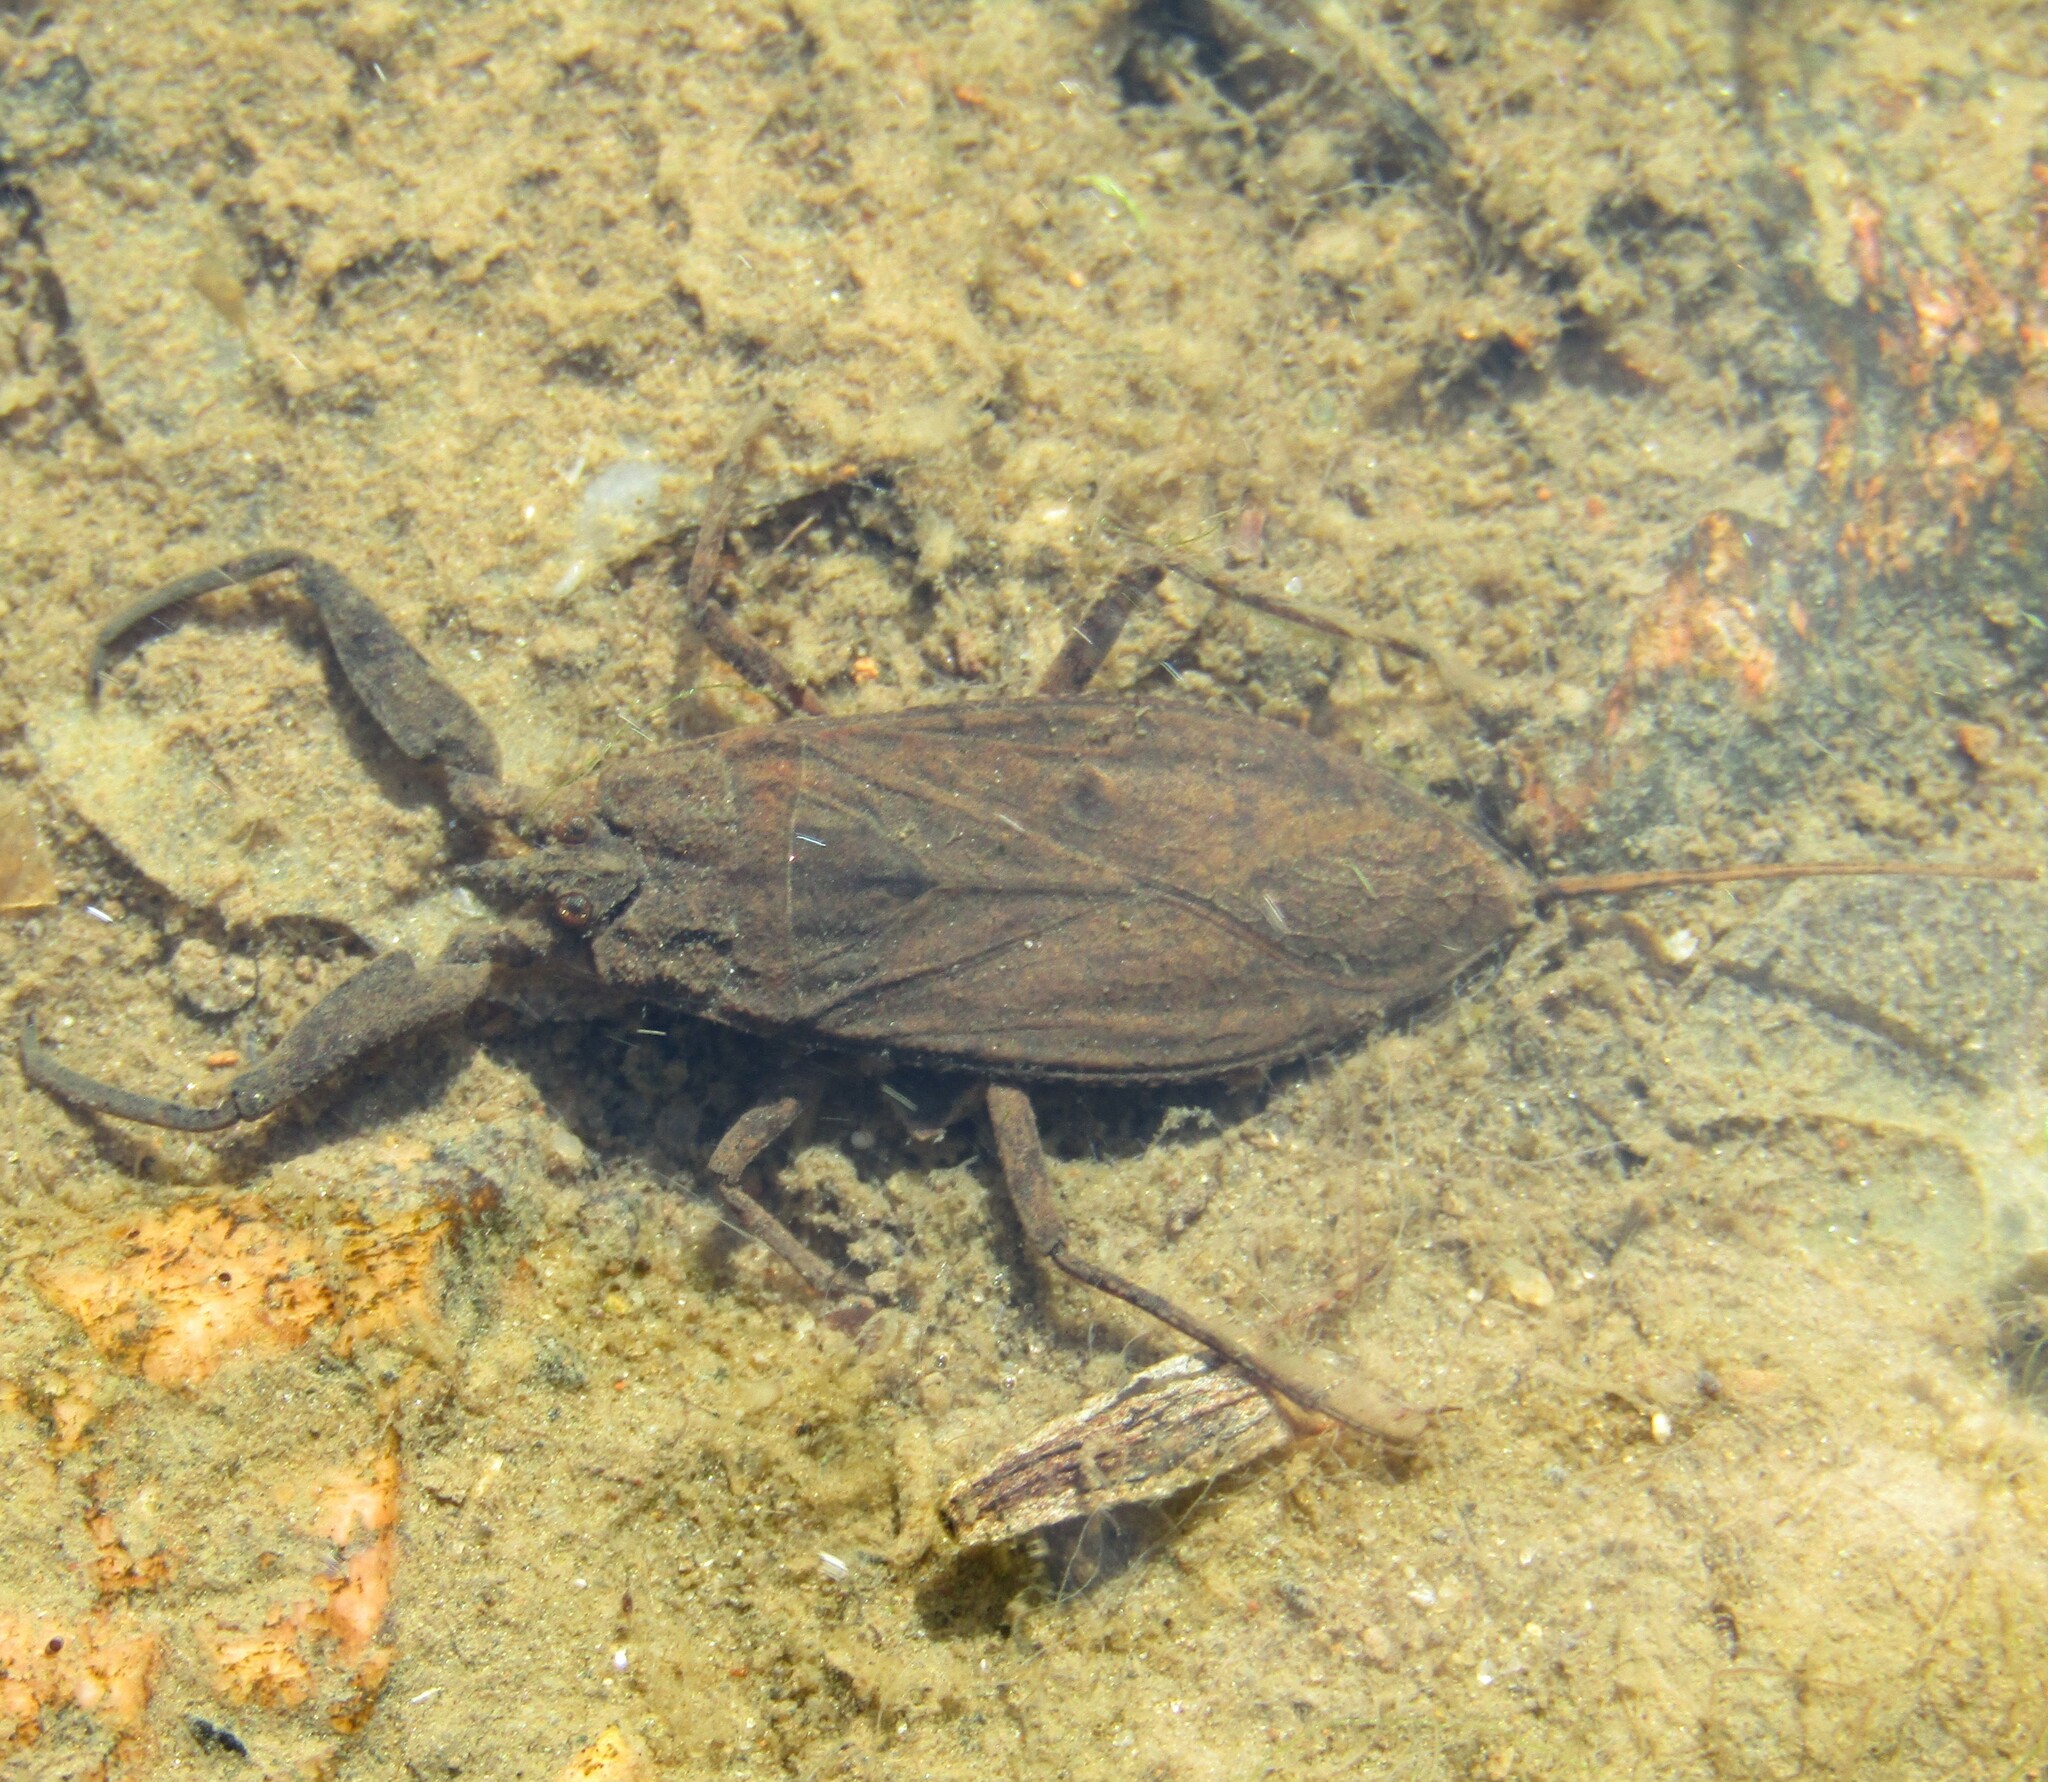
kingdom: Animalia
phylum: Arthropoda
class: Insecta
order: Hemiptera
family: Nepidae
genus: Nepa
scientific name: Nepa cinerea
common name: Water scorpion
